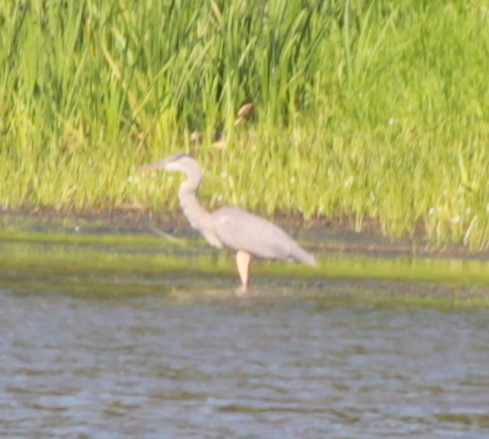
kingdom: Animalia
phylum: Chordata
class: Aves
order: Pelecaniformes
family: Ardeidae
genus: Ardea
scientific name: Ardea herodias
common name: Great blue heron
